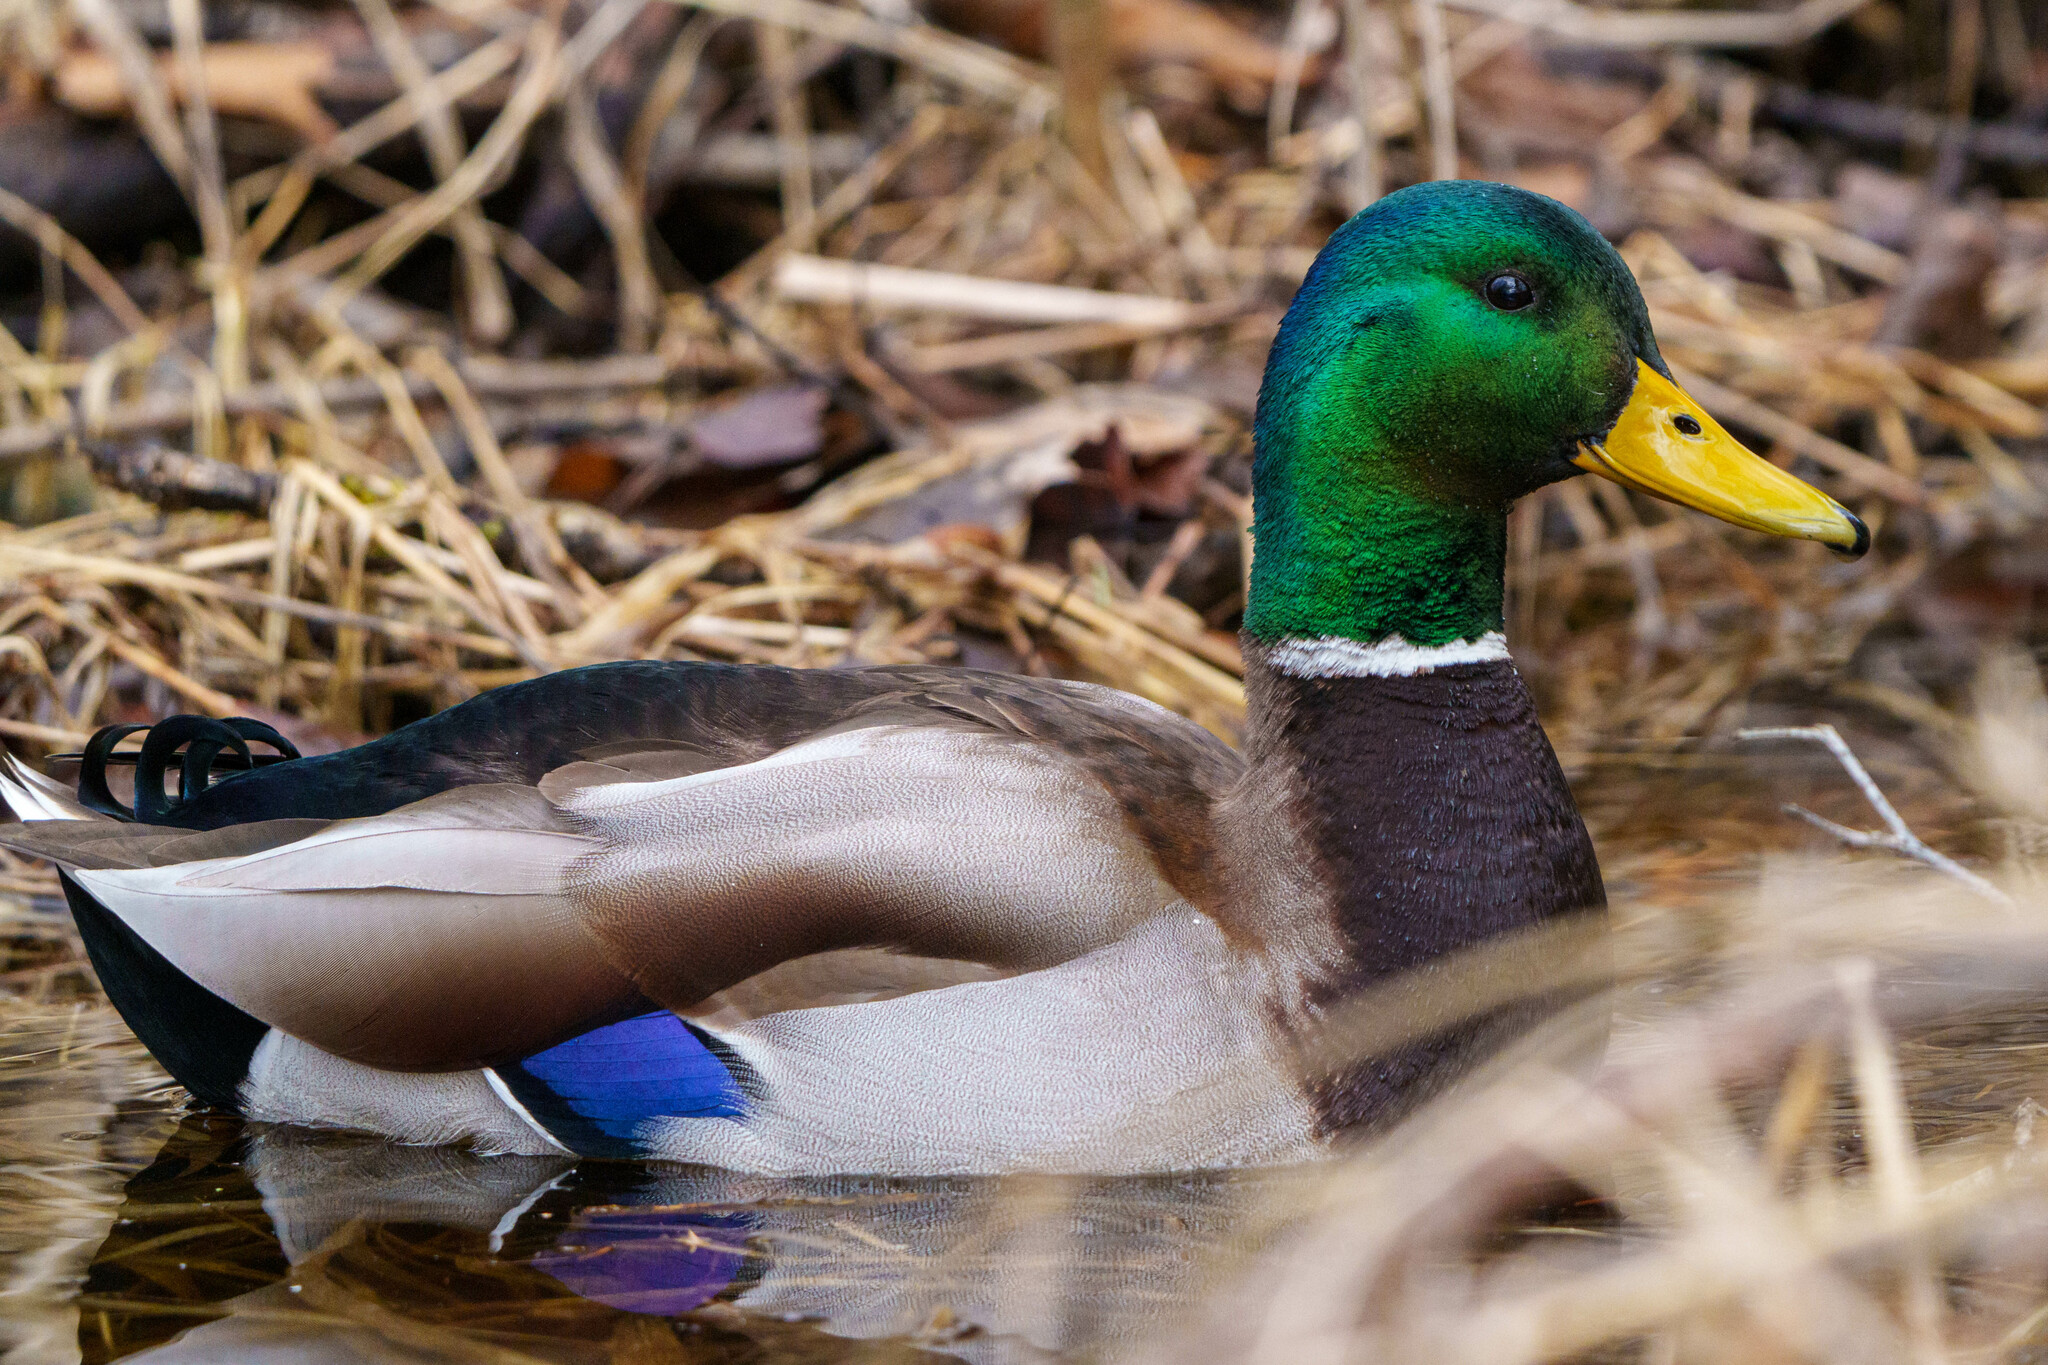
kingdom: Animalia
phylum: Chordata
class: Aves
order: Anseriformes
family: Anatidae
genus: Anas
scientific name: Anas platyrhynchos
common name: Mallard
